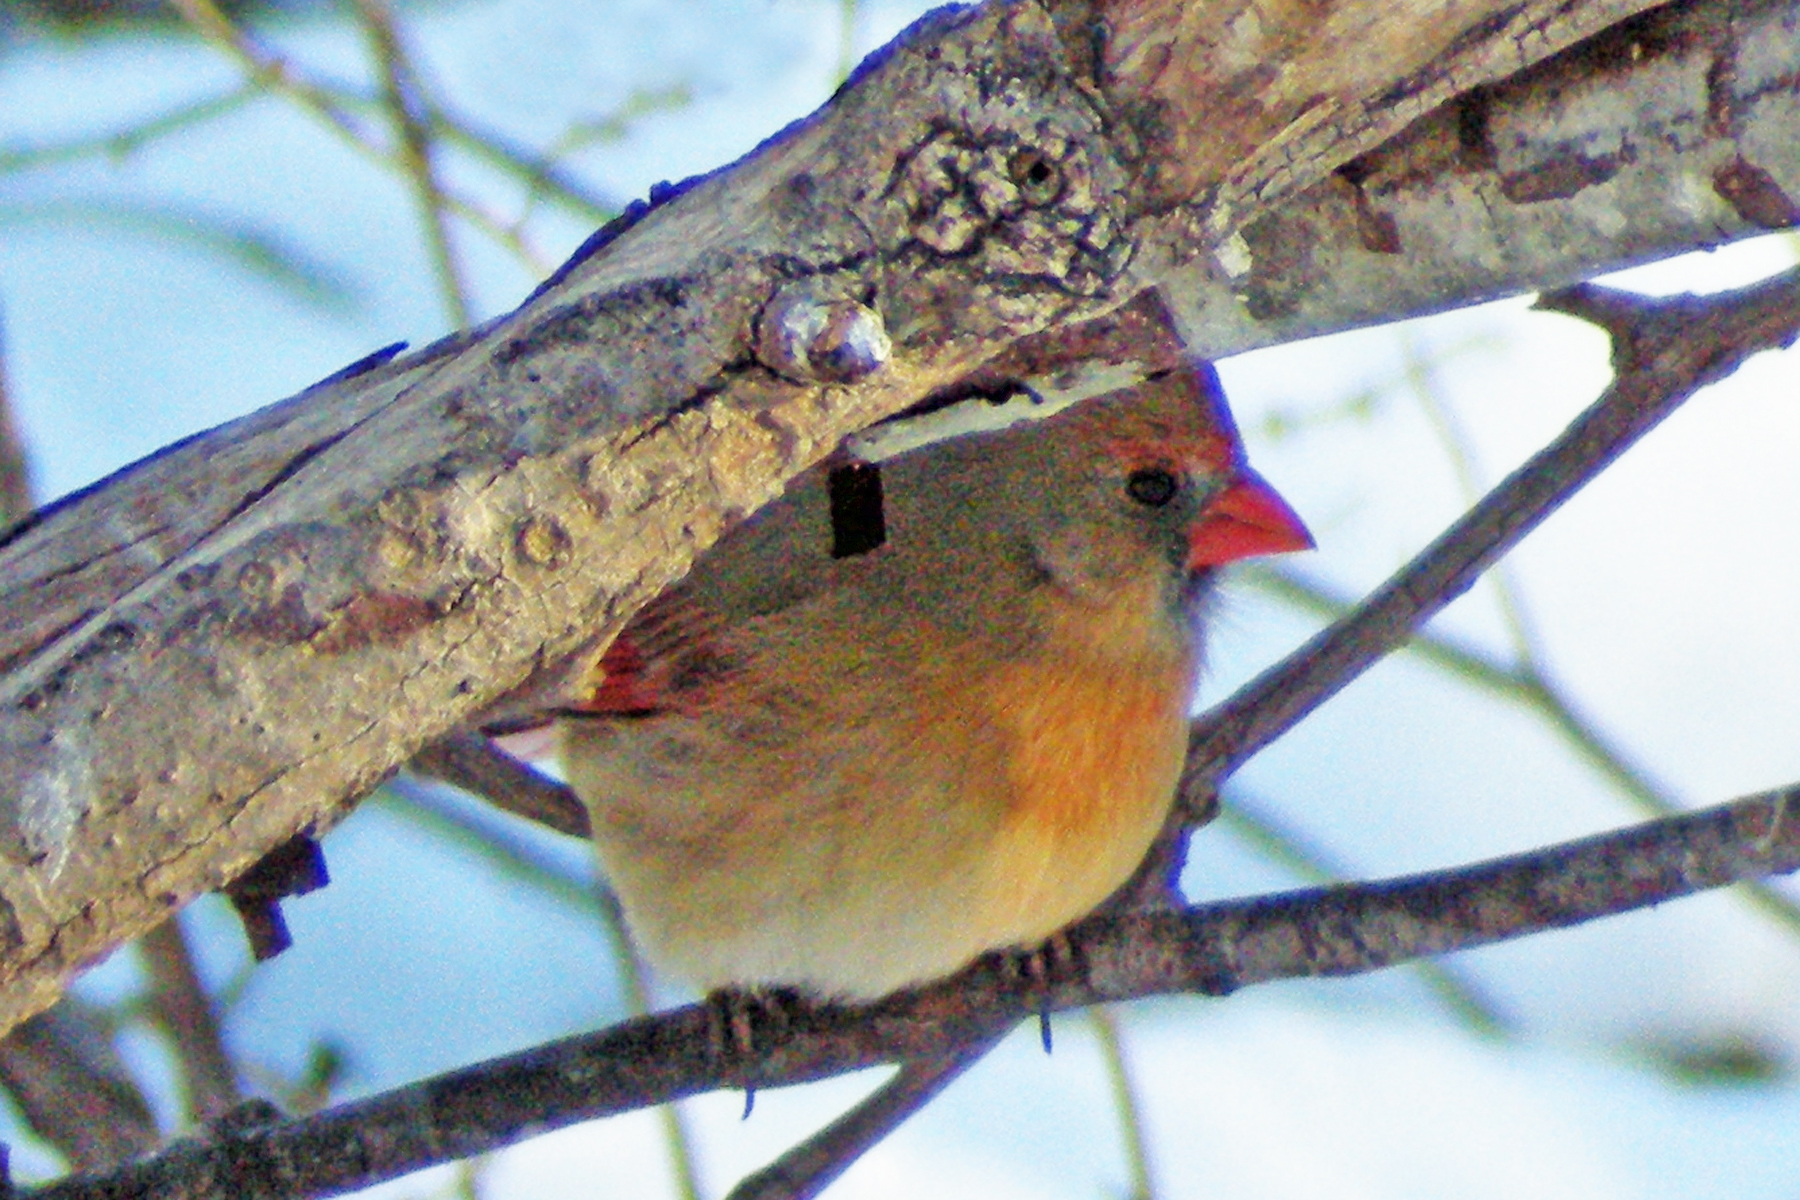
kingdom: Animalia
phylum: Chordata
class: Aves
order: Passeriformes
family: Cardinalidae
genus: Cardinalis
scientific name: Cardinalis cardinalis
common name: Northern cardinal
